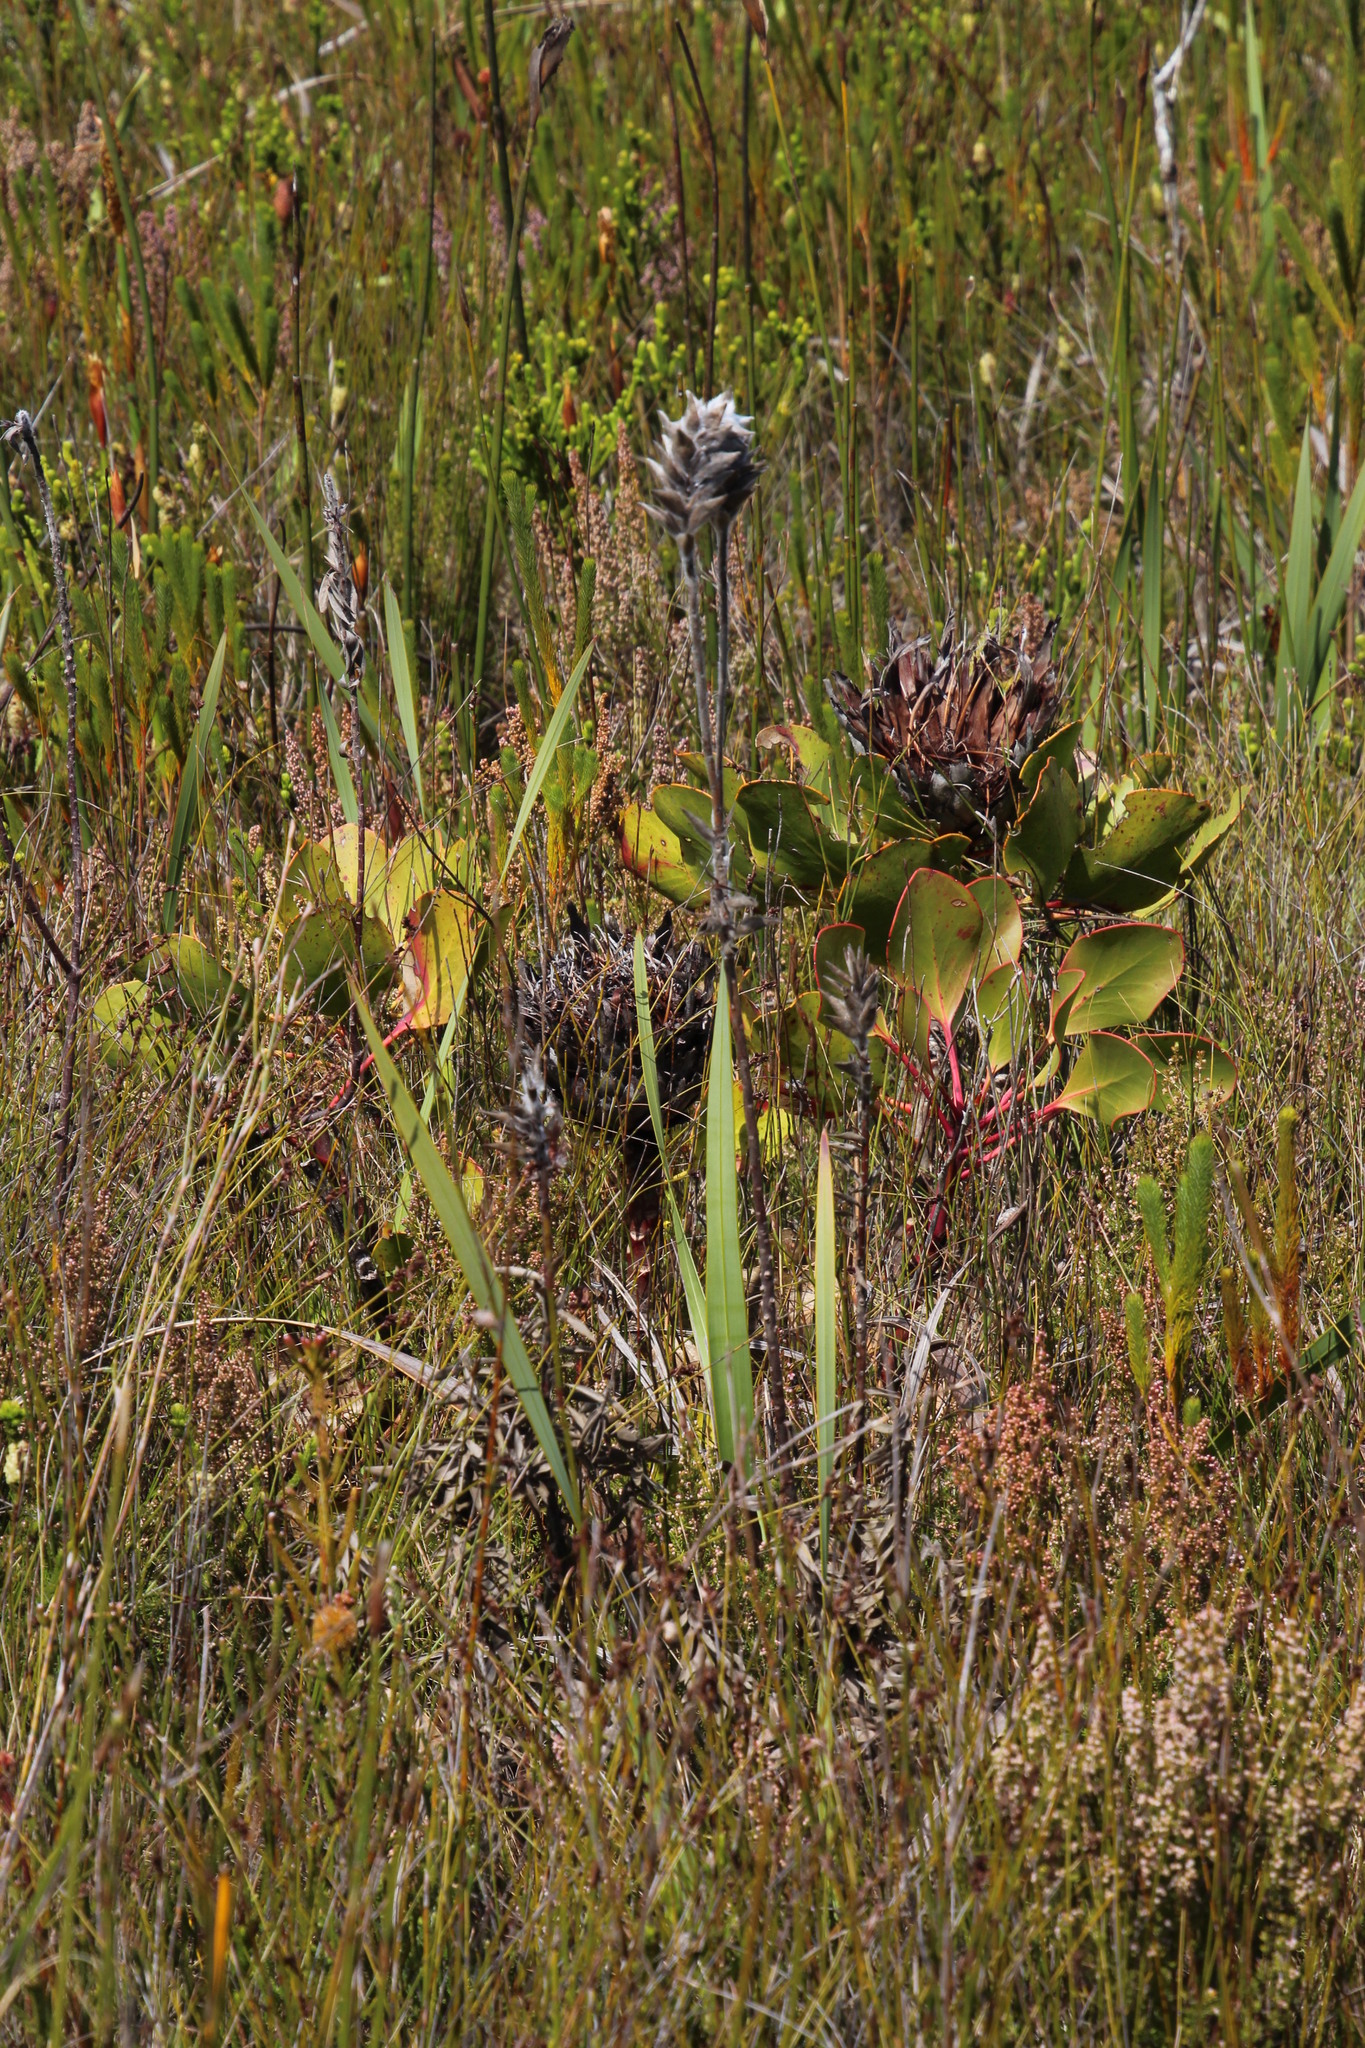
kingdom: Plantae
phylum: Tracheophyta
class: Magnoliopsida
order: Proteales
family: Proteaceae
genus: Mimetes
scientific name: Mimetes capitulatus
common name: Conical pagoda
